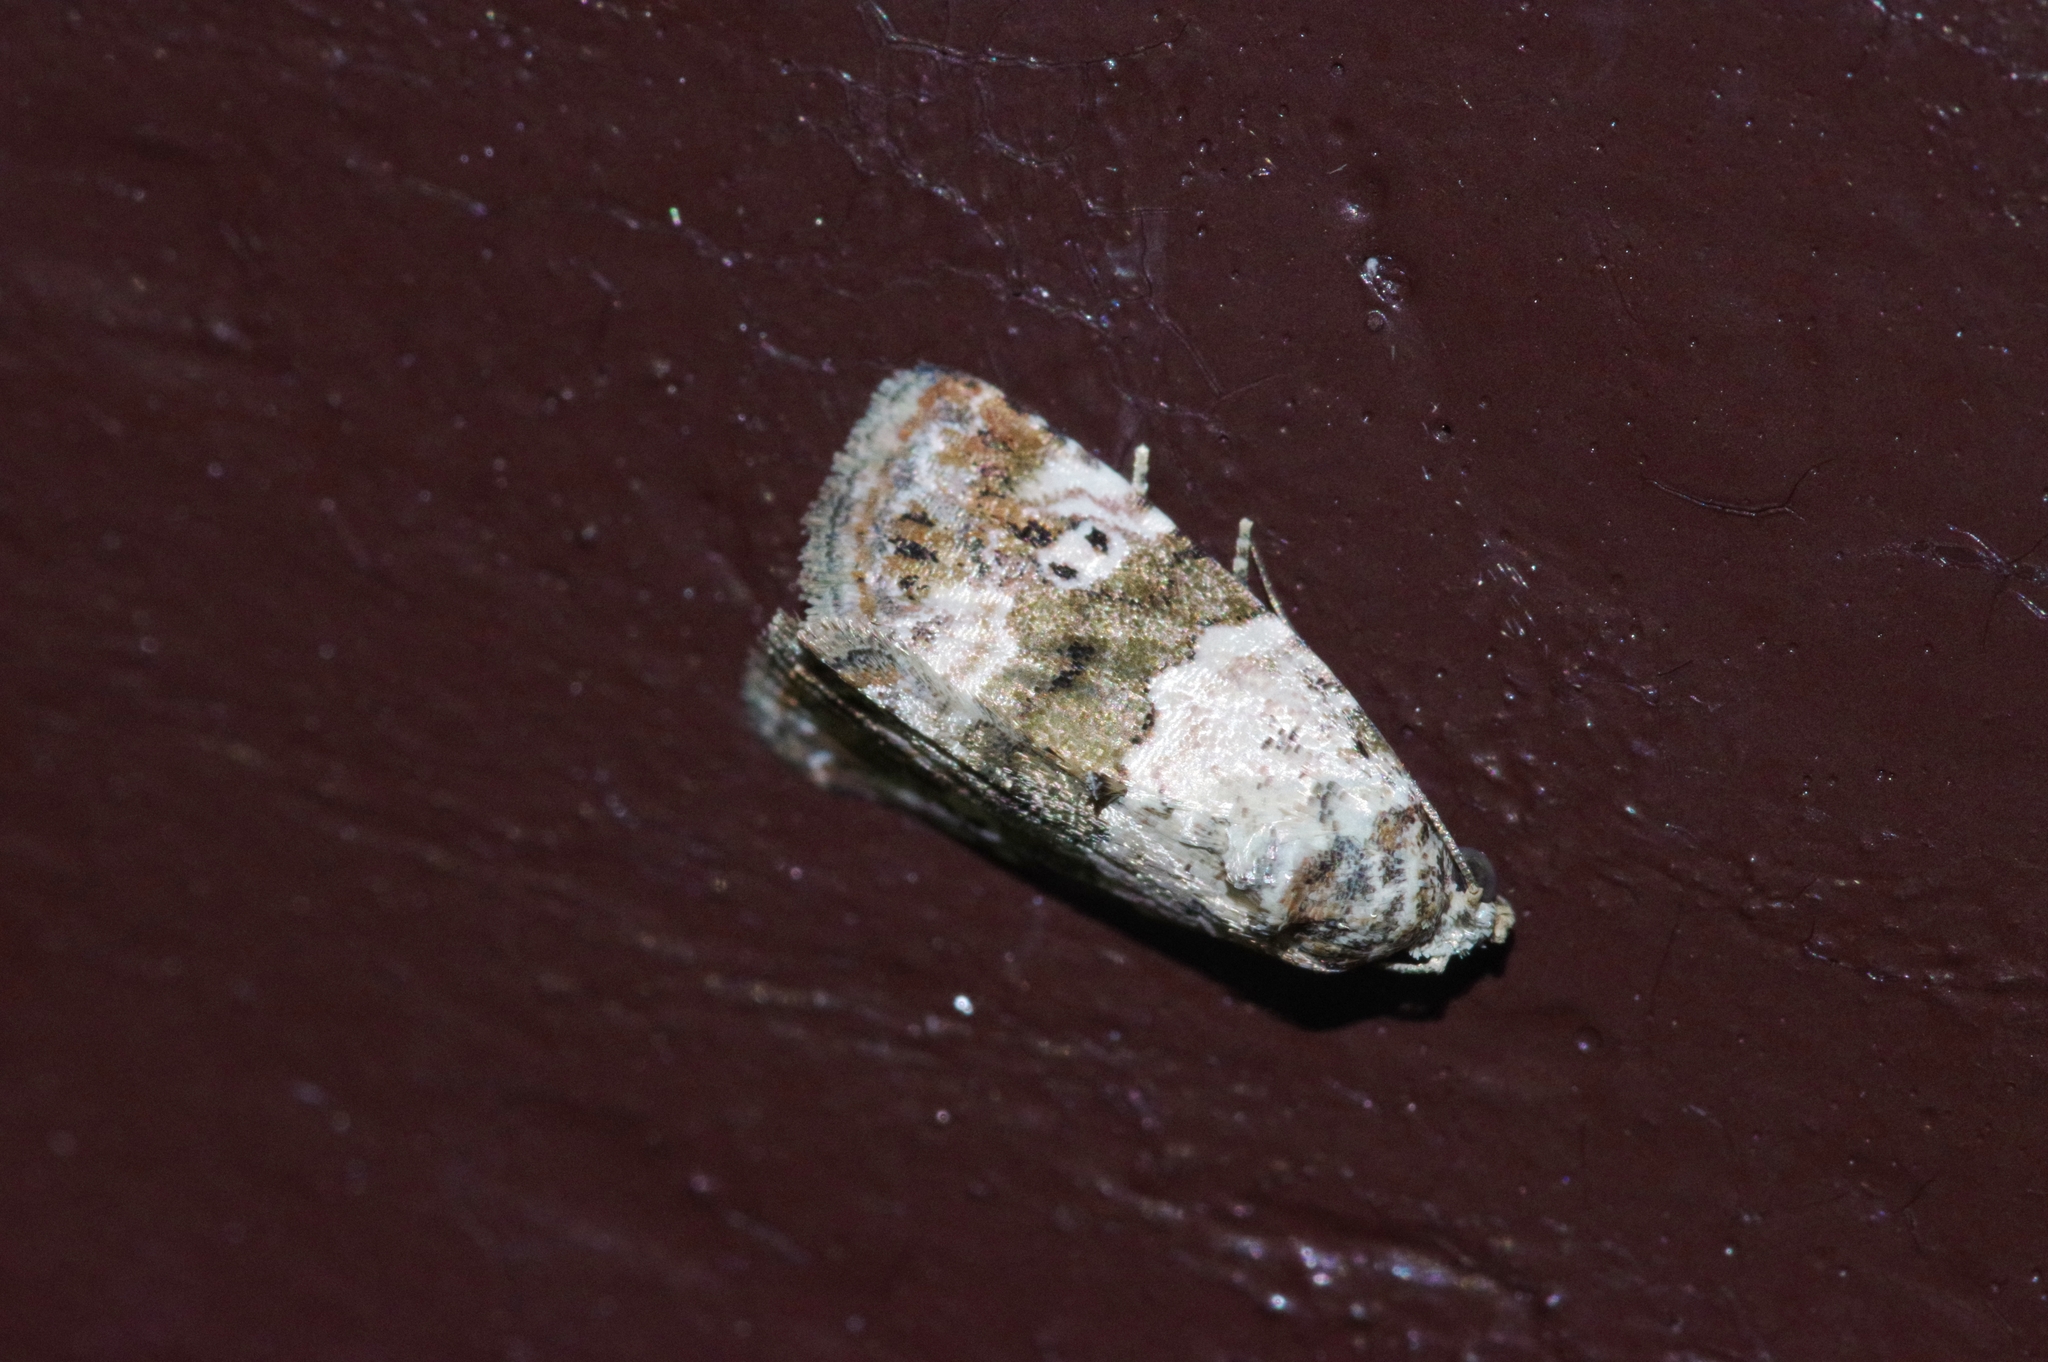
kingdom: Animalia
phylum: Arthropoda
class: Insecta
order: Lepidoptera
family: Noctuidae
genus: Maliattha
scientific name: Maliattha signifera
